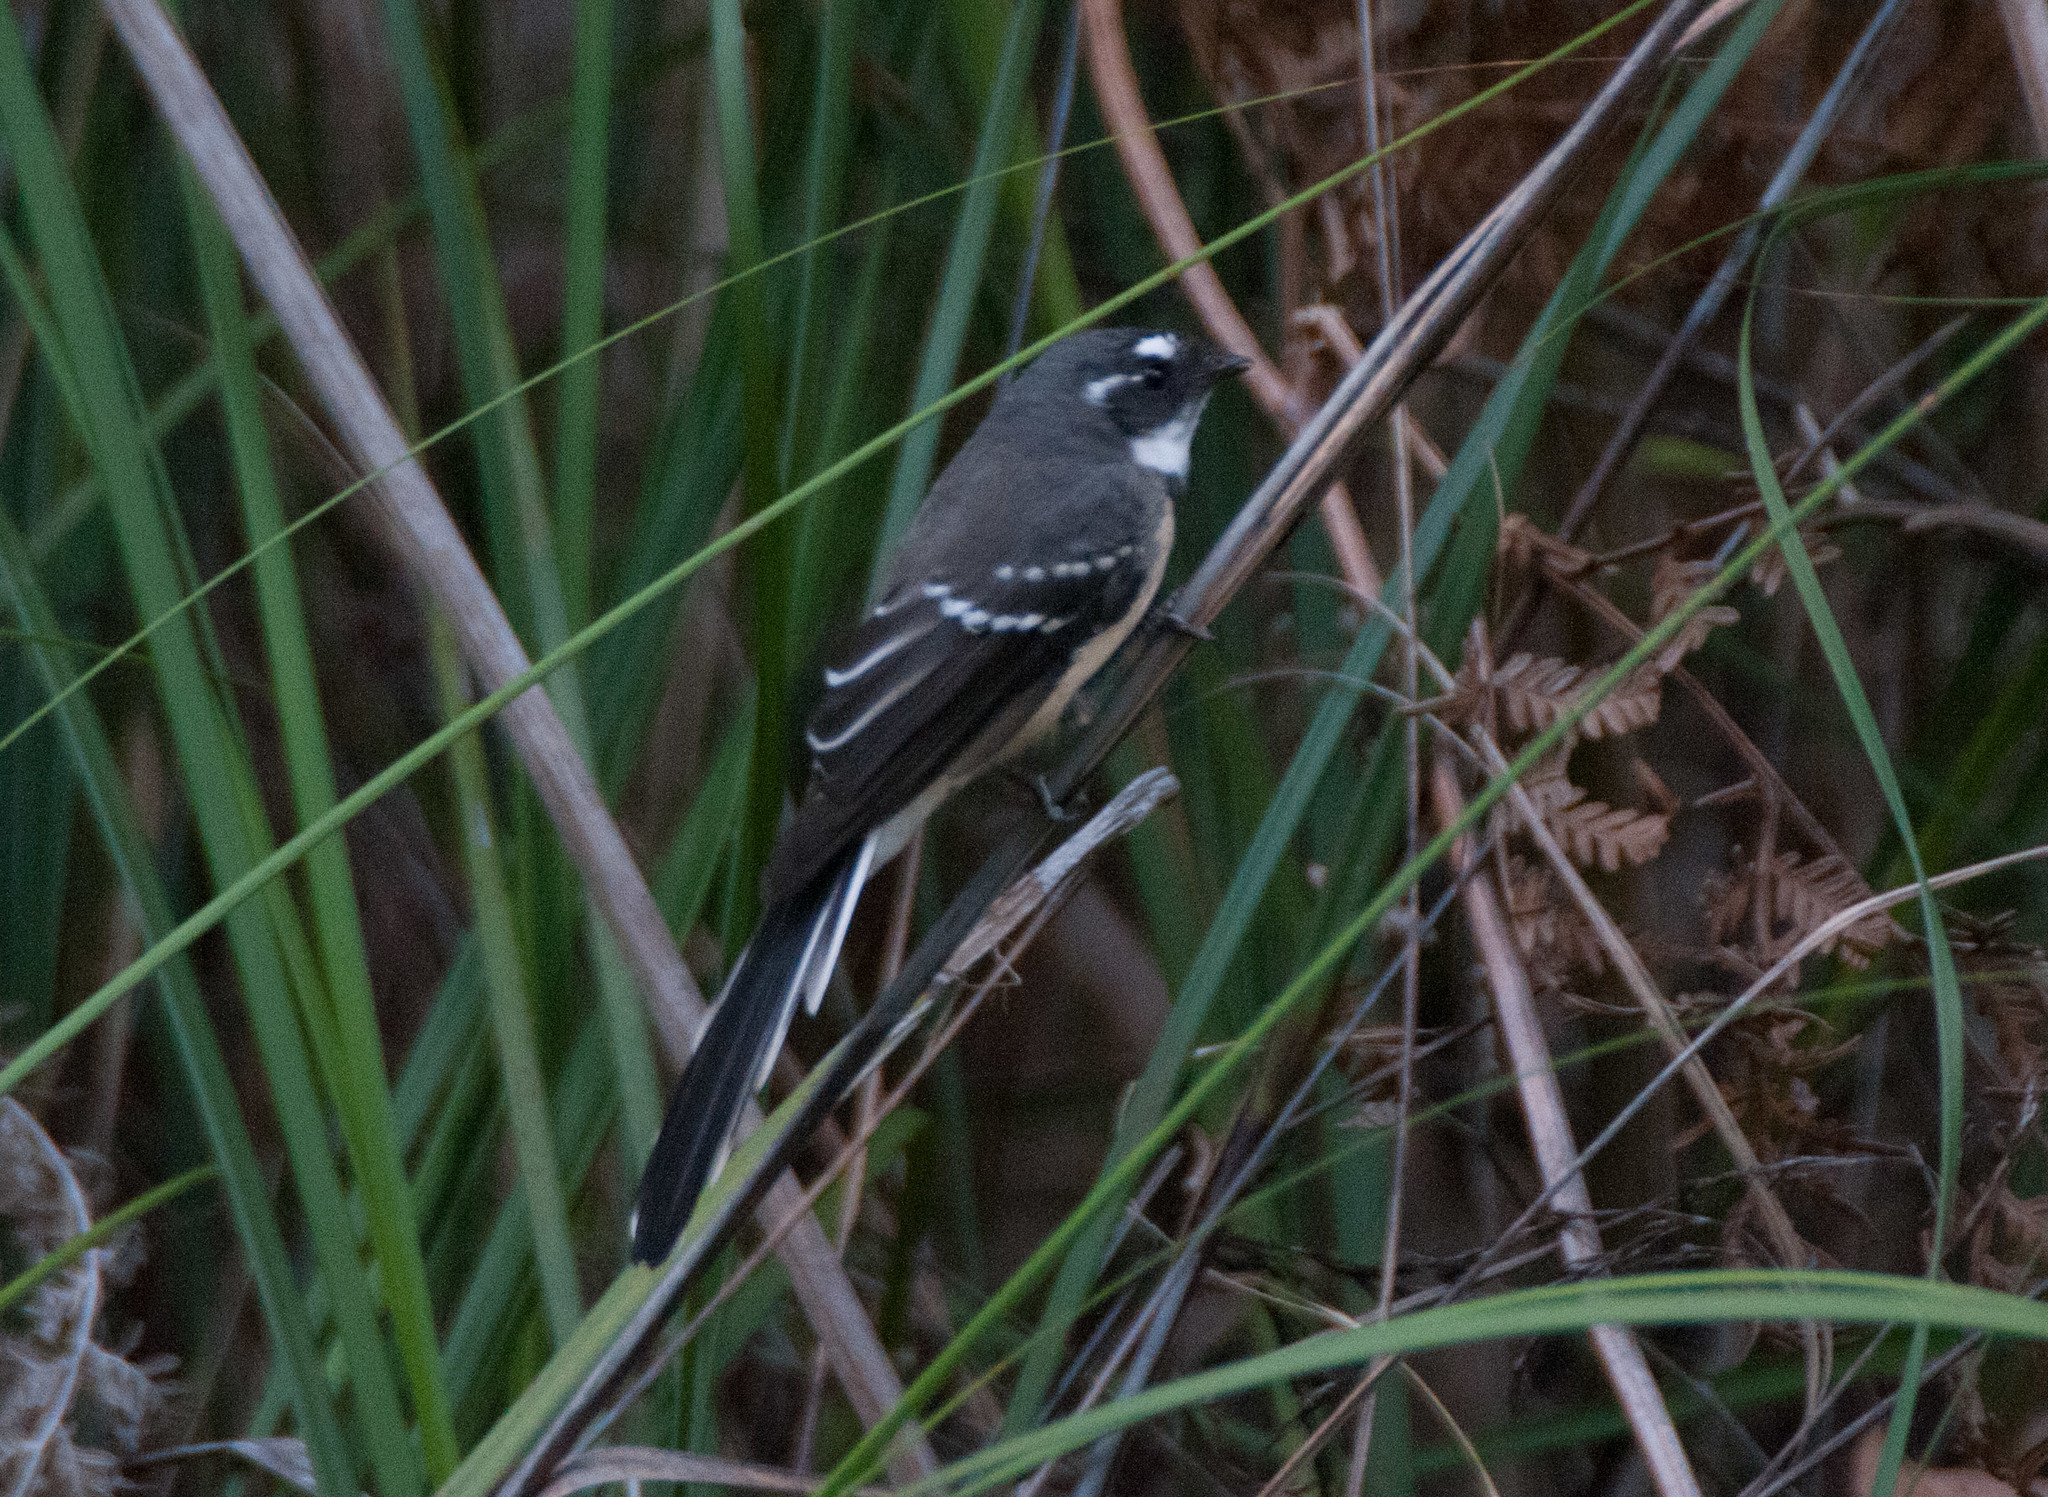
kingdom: Animalia
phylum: Chordata
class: Aves
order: Passeriformes
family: Rhipiduridae
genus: Rhipidura
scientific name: Rhipidura albiscapa
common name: Grey fantail
